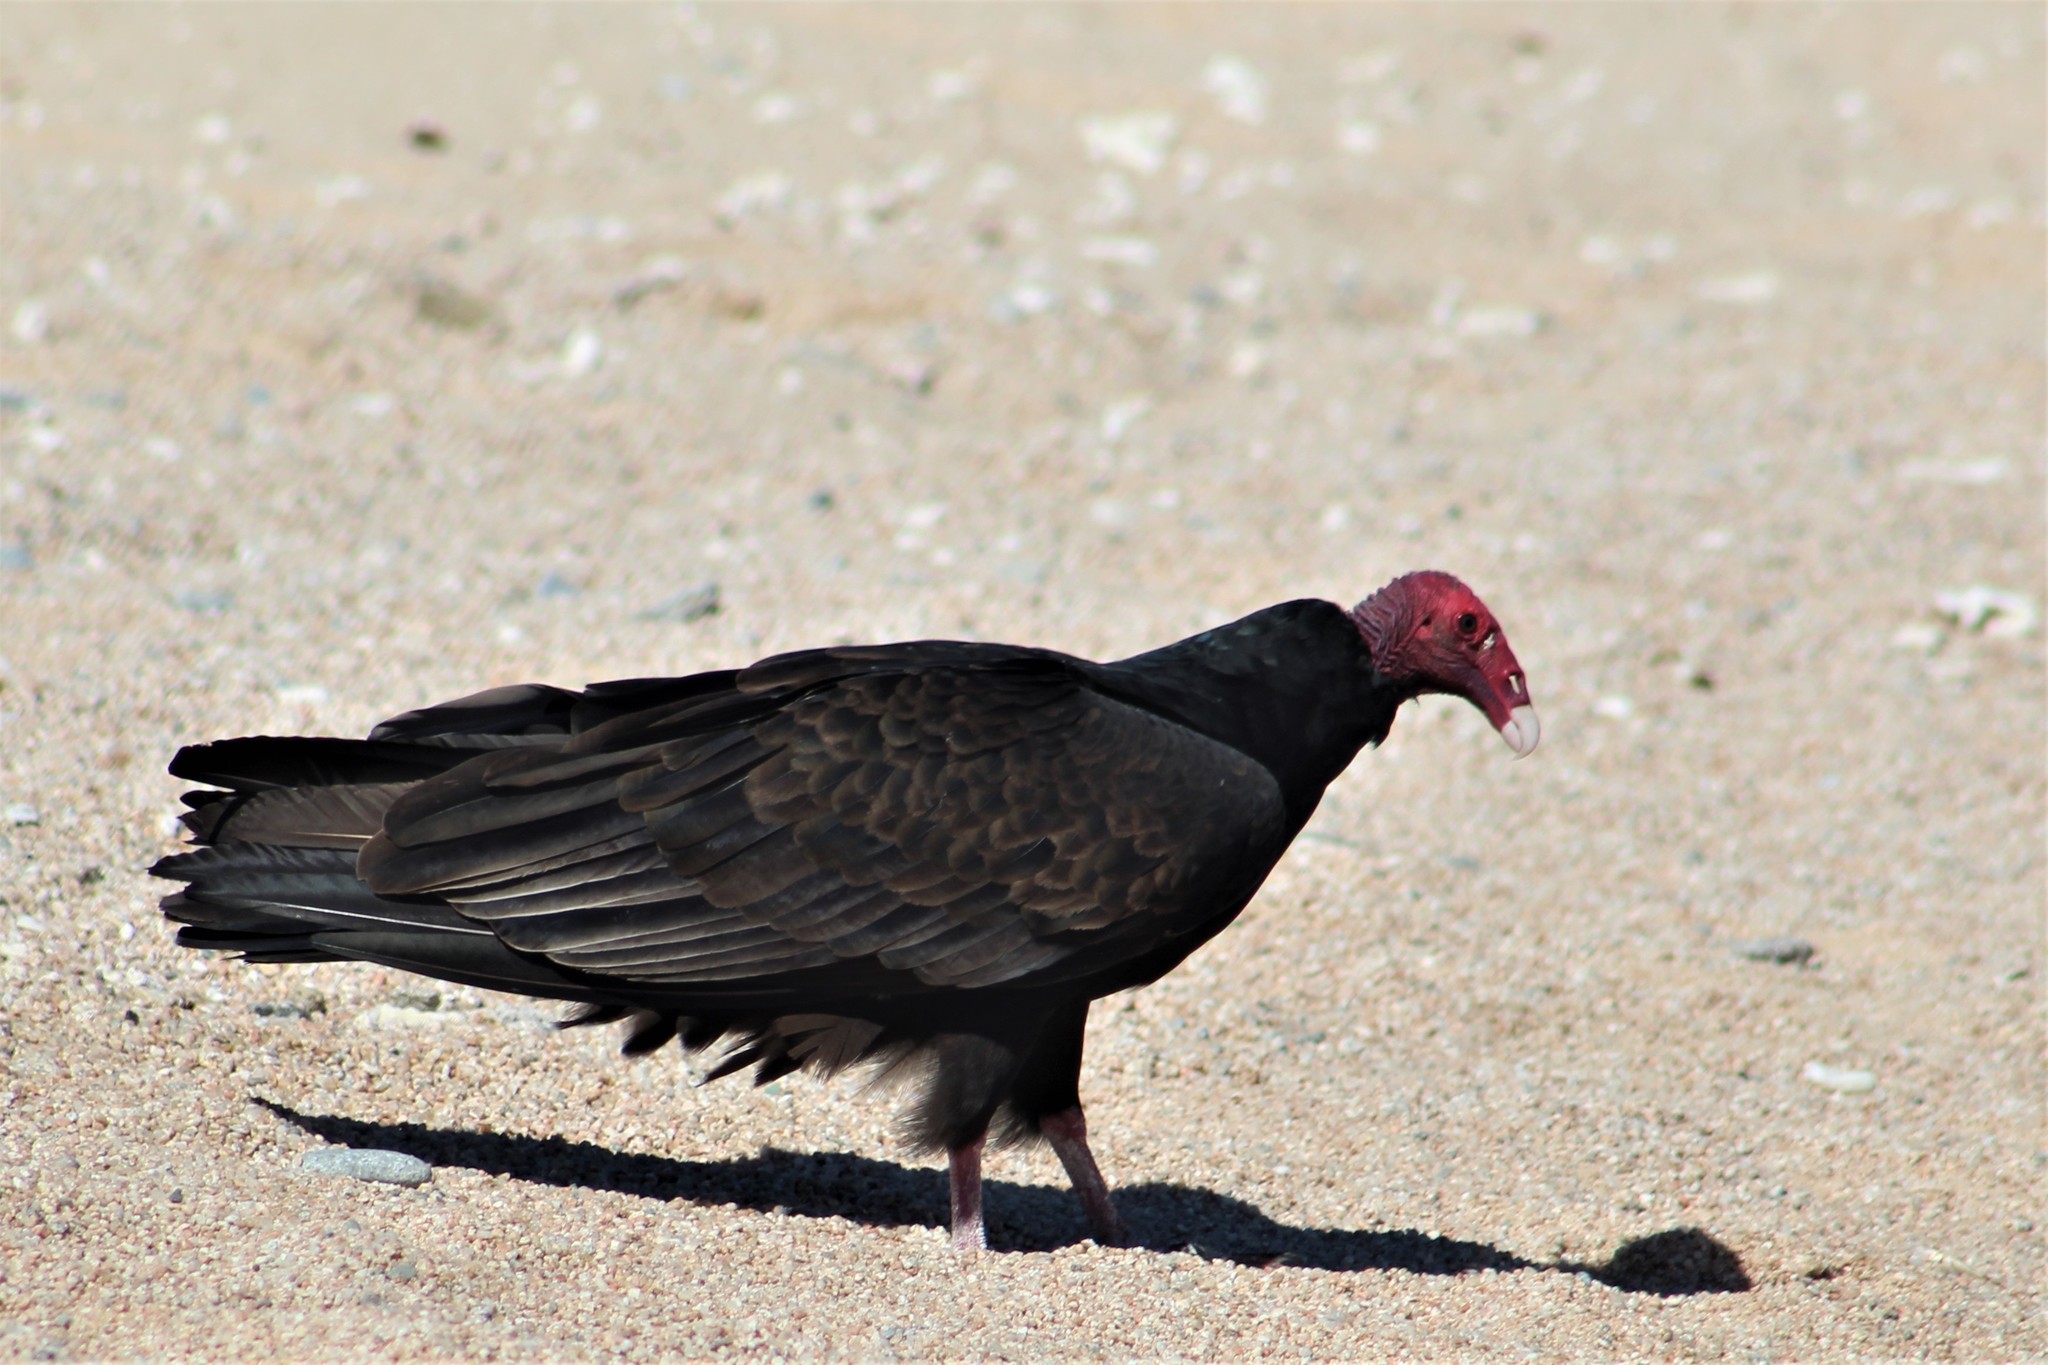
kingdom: Animalia
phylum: Chordata
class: Aves
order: Accipitriformes
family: Cathartidae
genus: Cathartes
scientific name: Cathartes aura
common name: Turkey vulture
